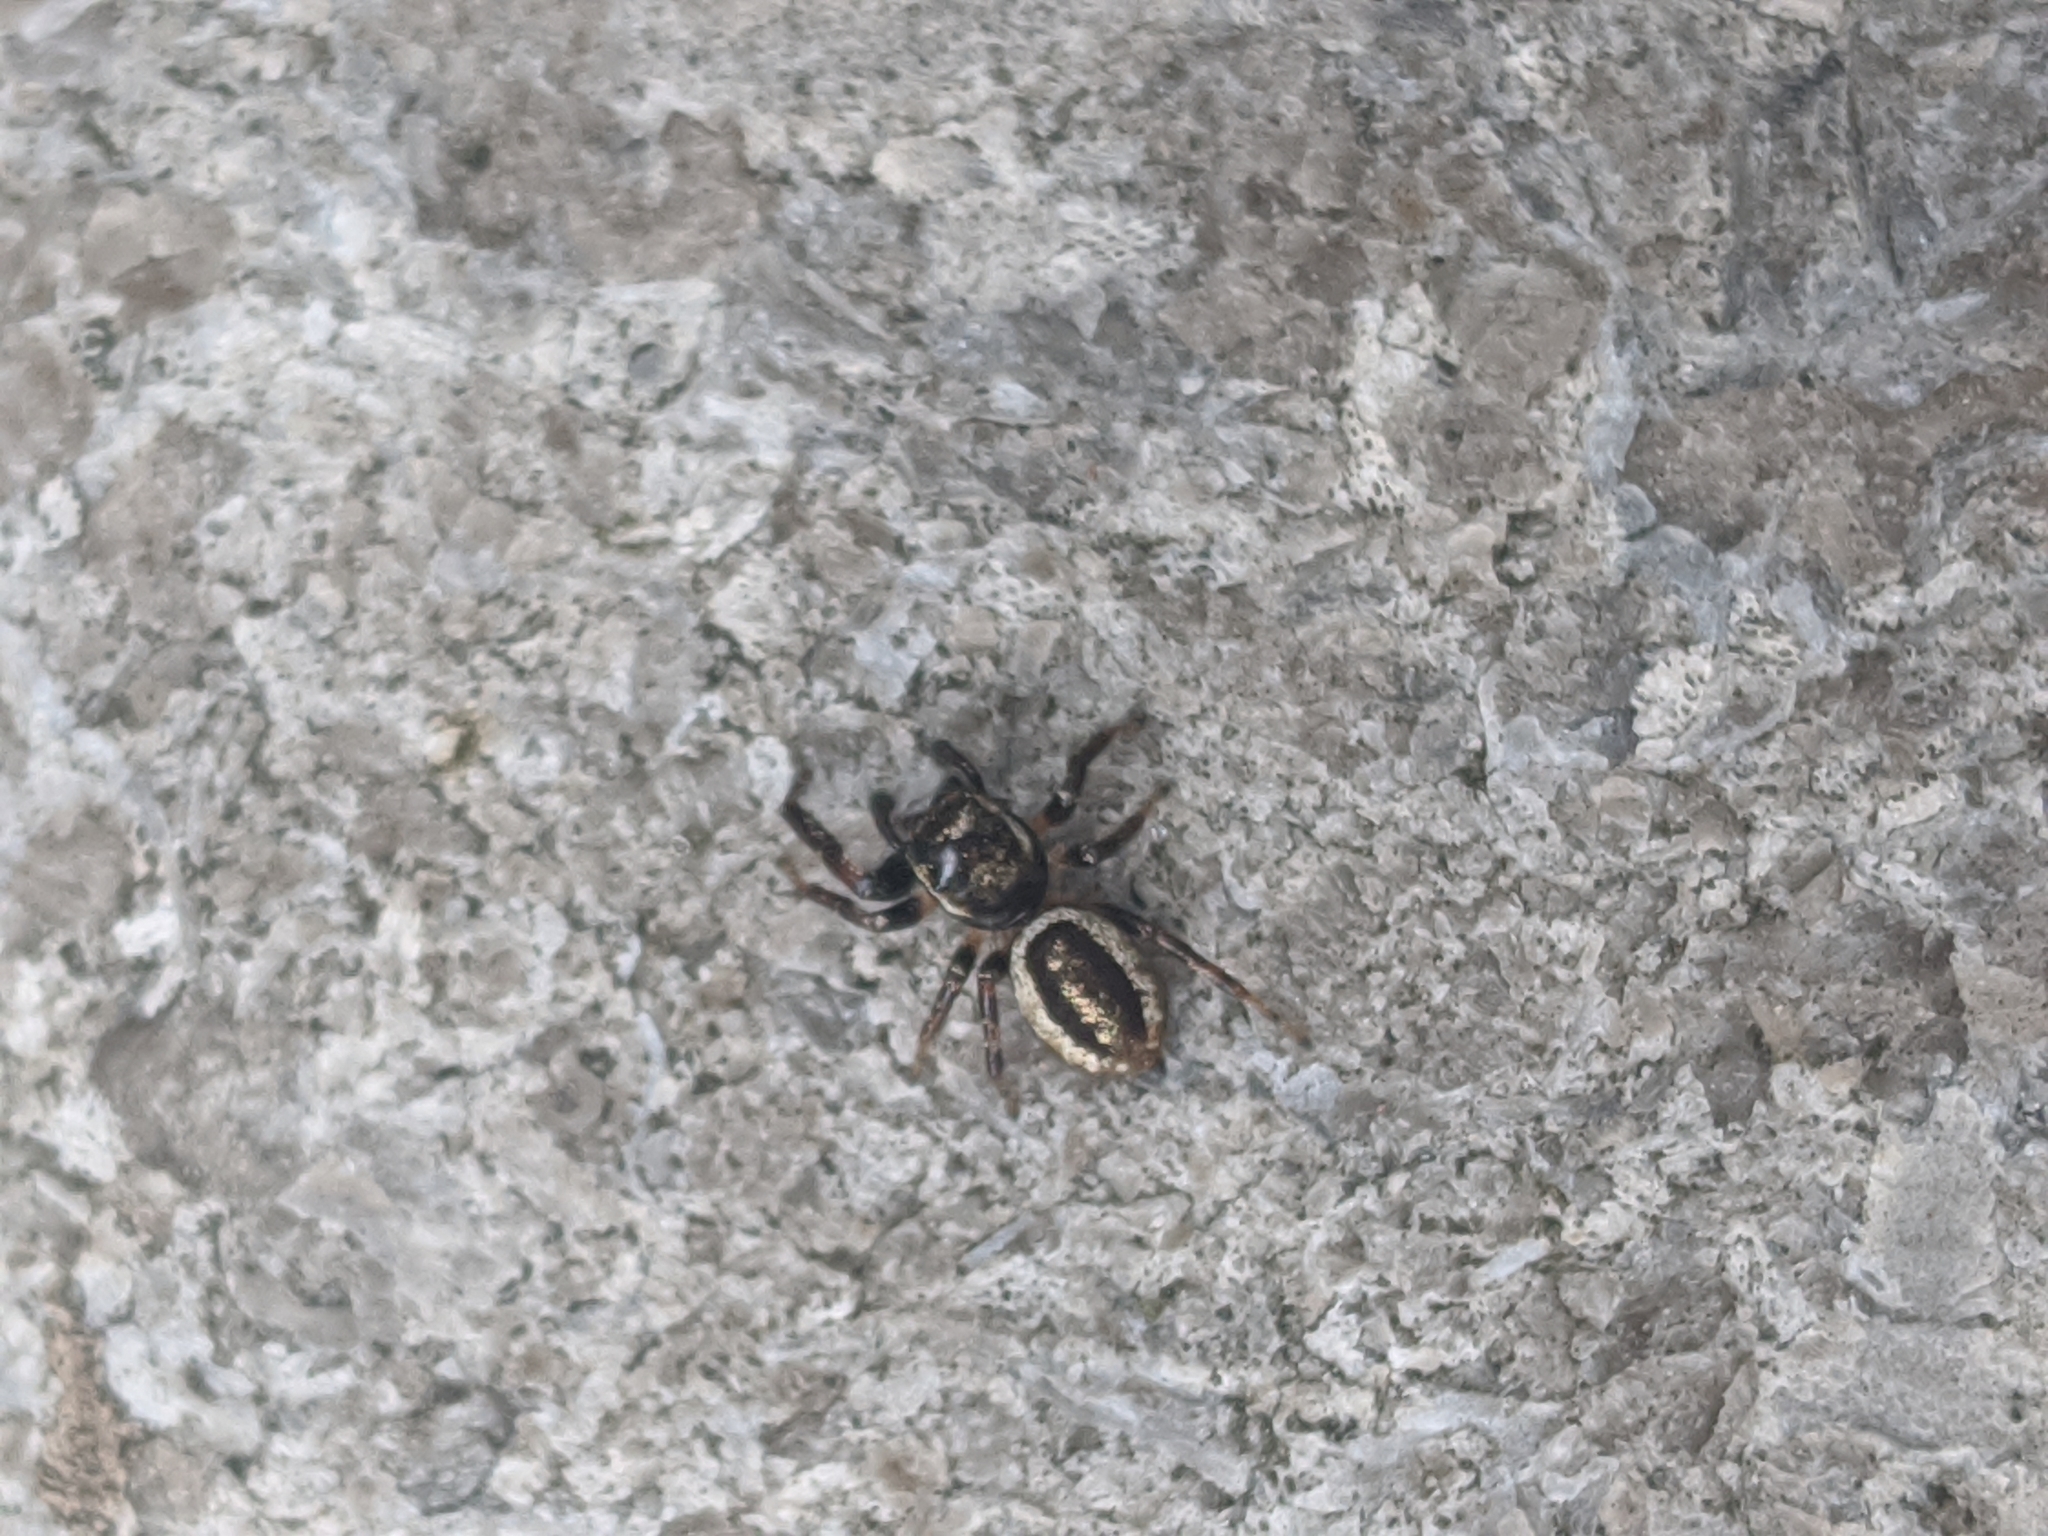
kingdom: Animalia
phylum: Arthropoda
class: Arachnida
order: Araneae
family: Salticidae
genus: Pelegrina
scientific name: Pelegrina exigua
